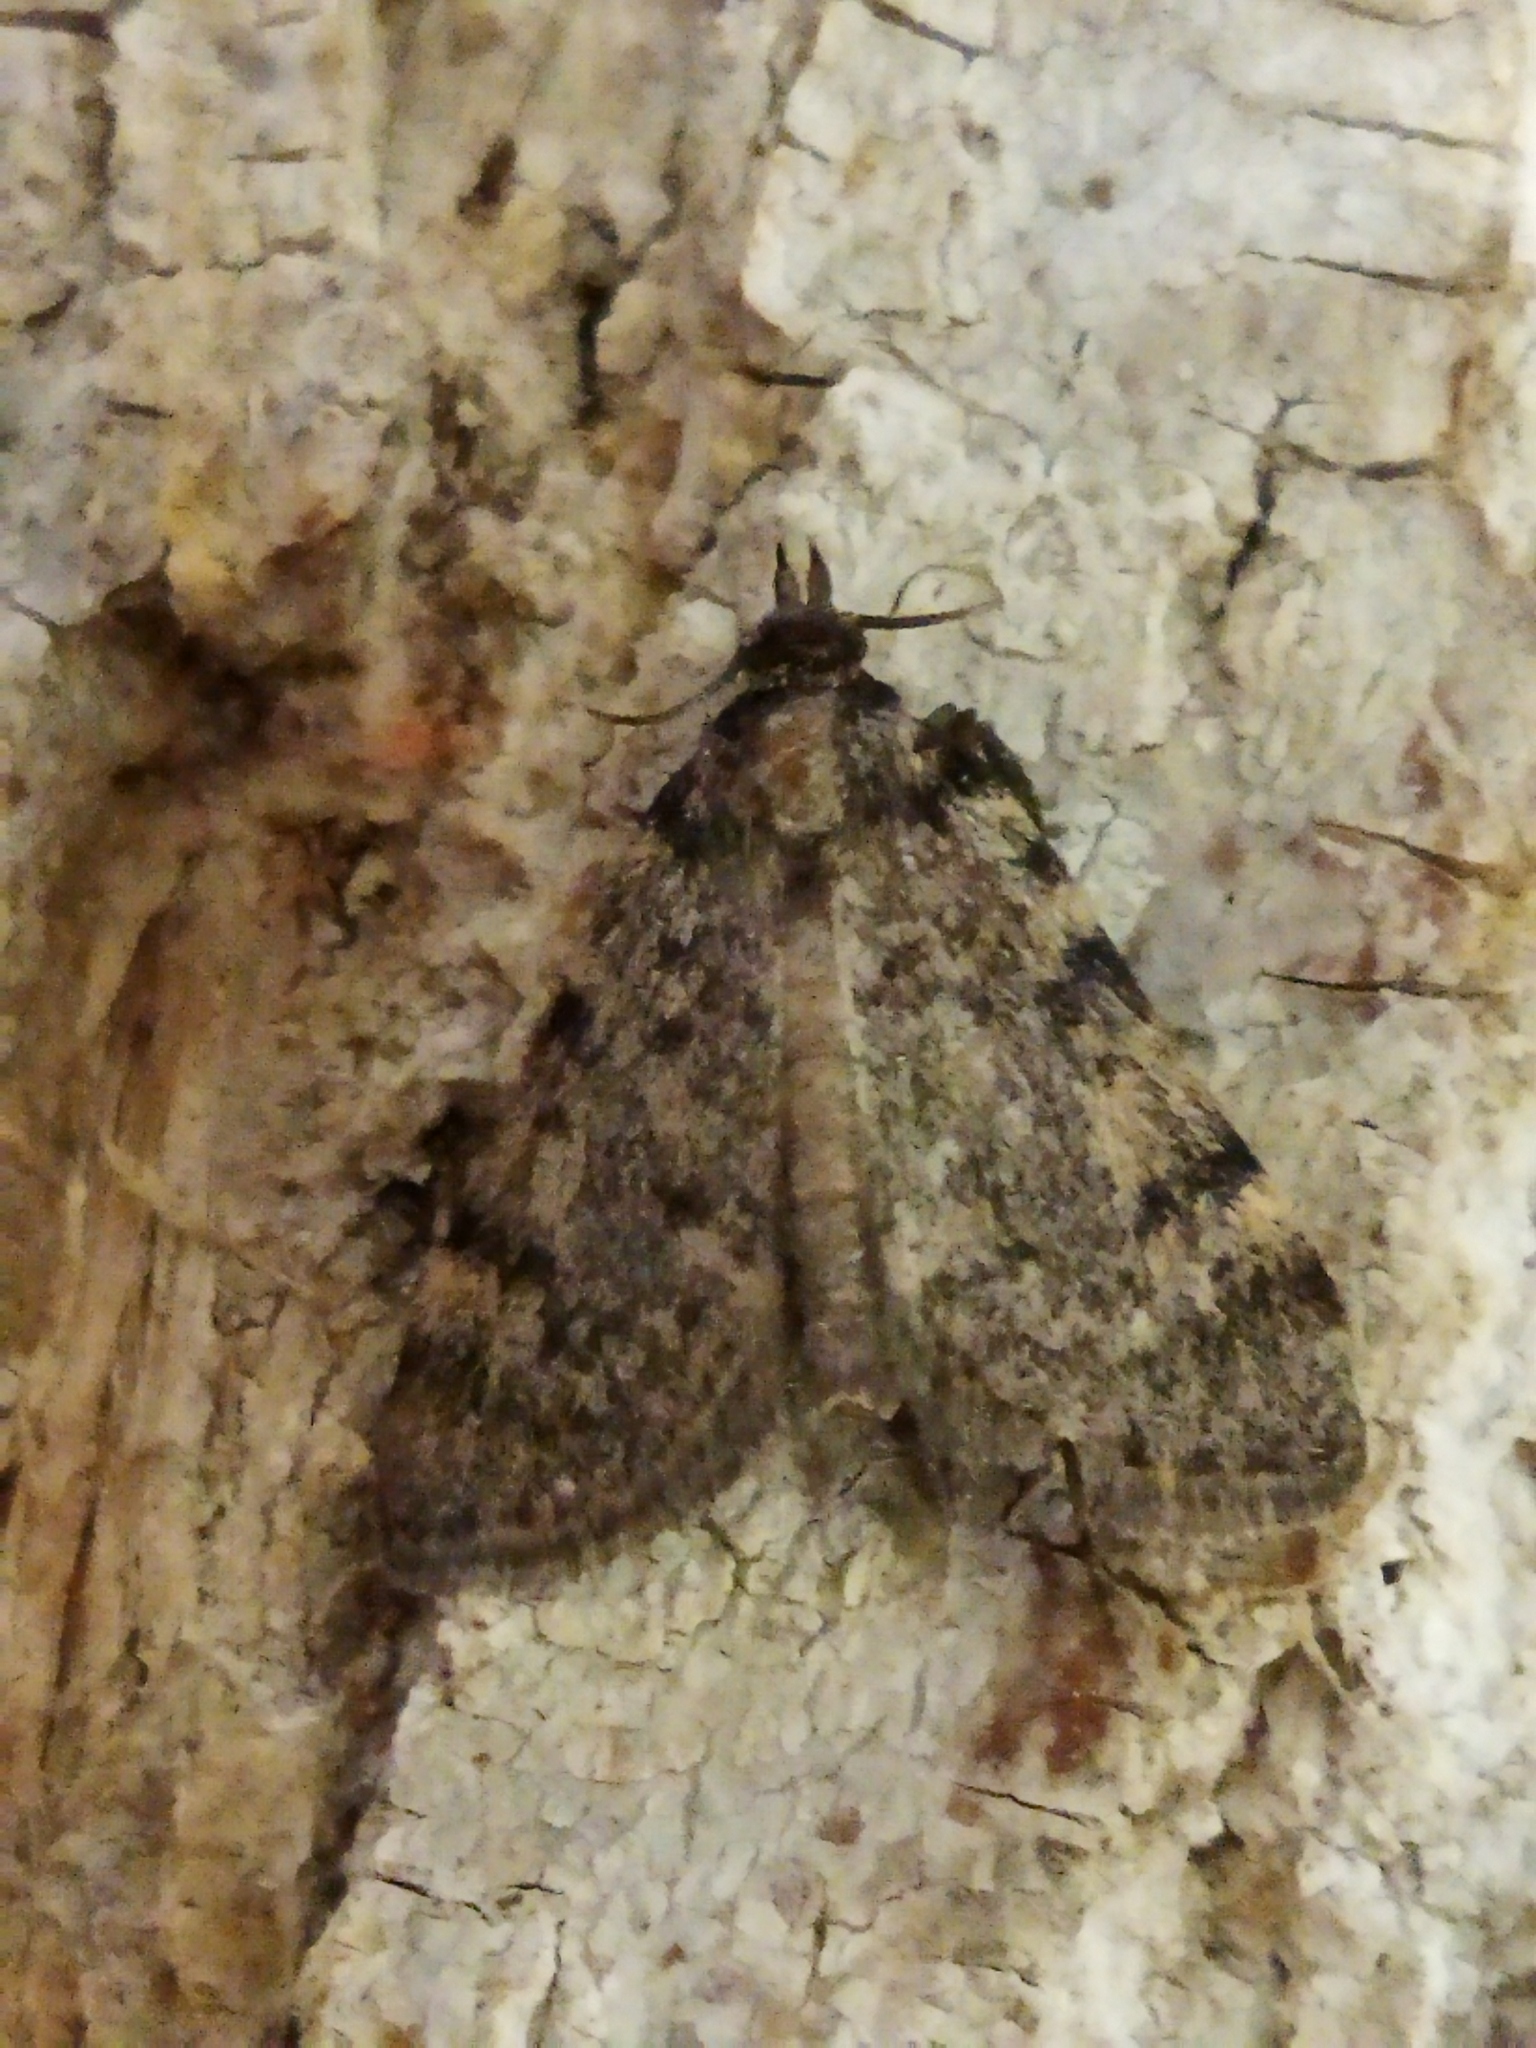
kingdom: Animalia
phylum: Arthropoda
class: Insecta
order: Lepidoptera
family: Pyralidae
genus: Aglossa
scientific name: Aglossa pinguinalis
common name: Large tabby
